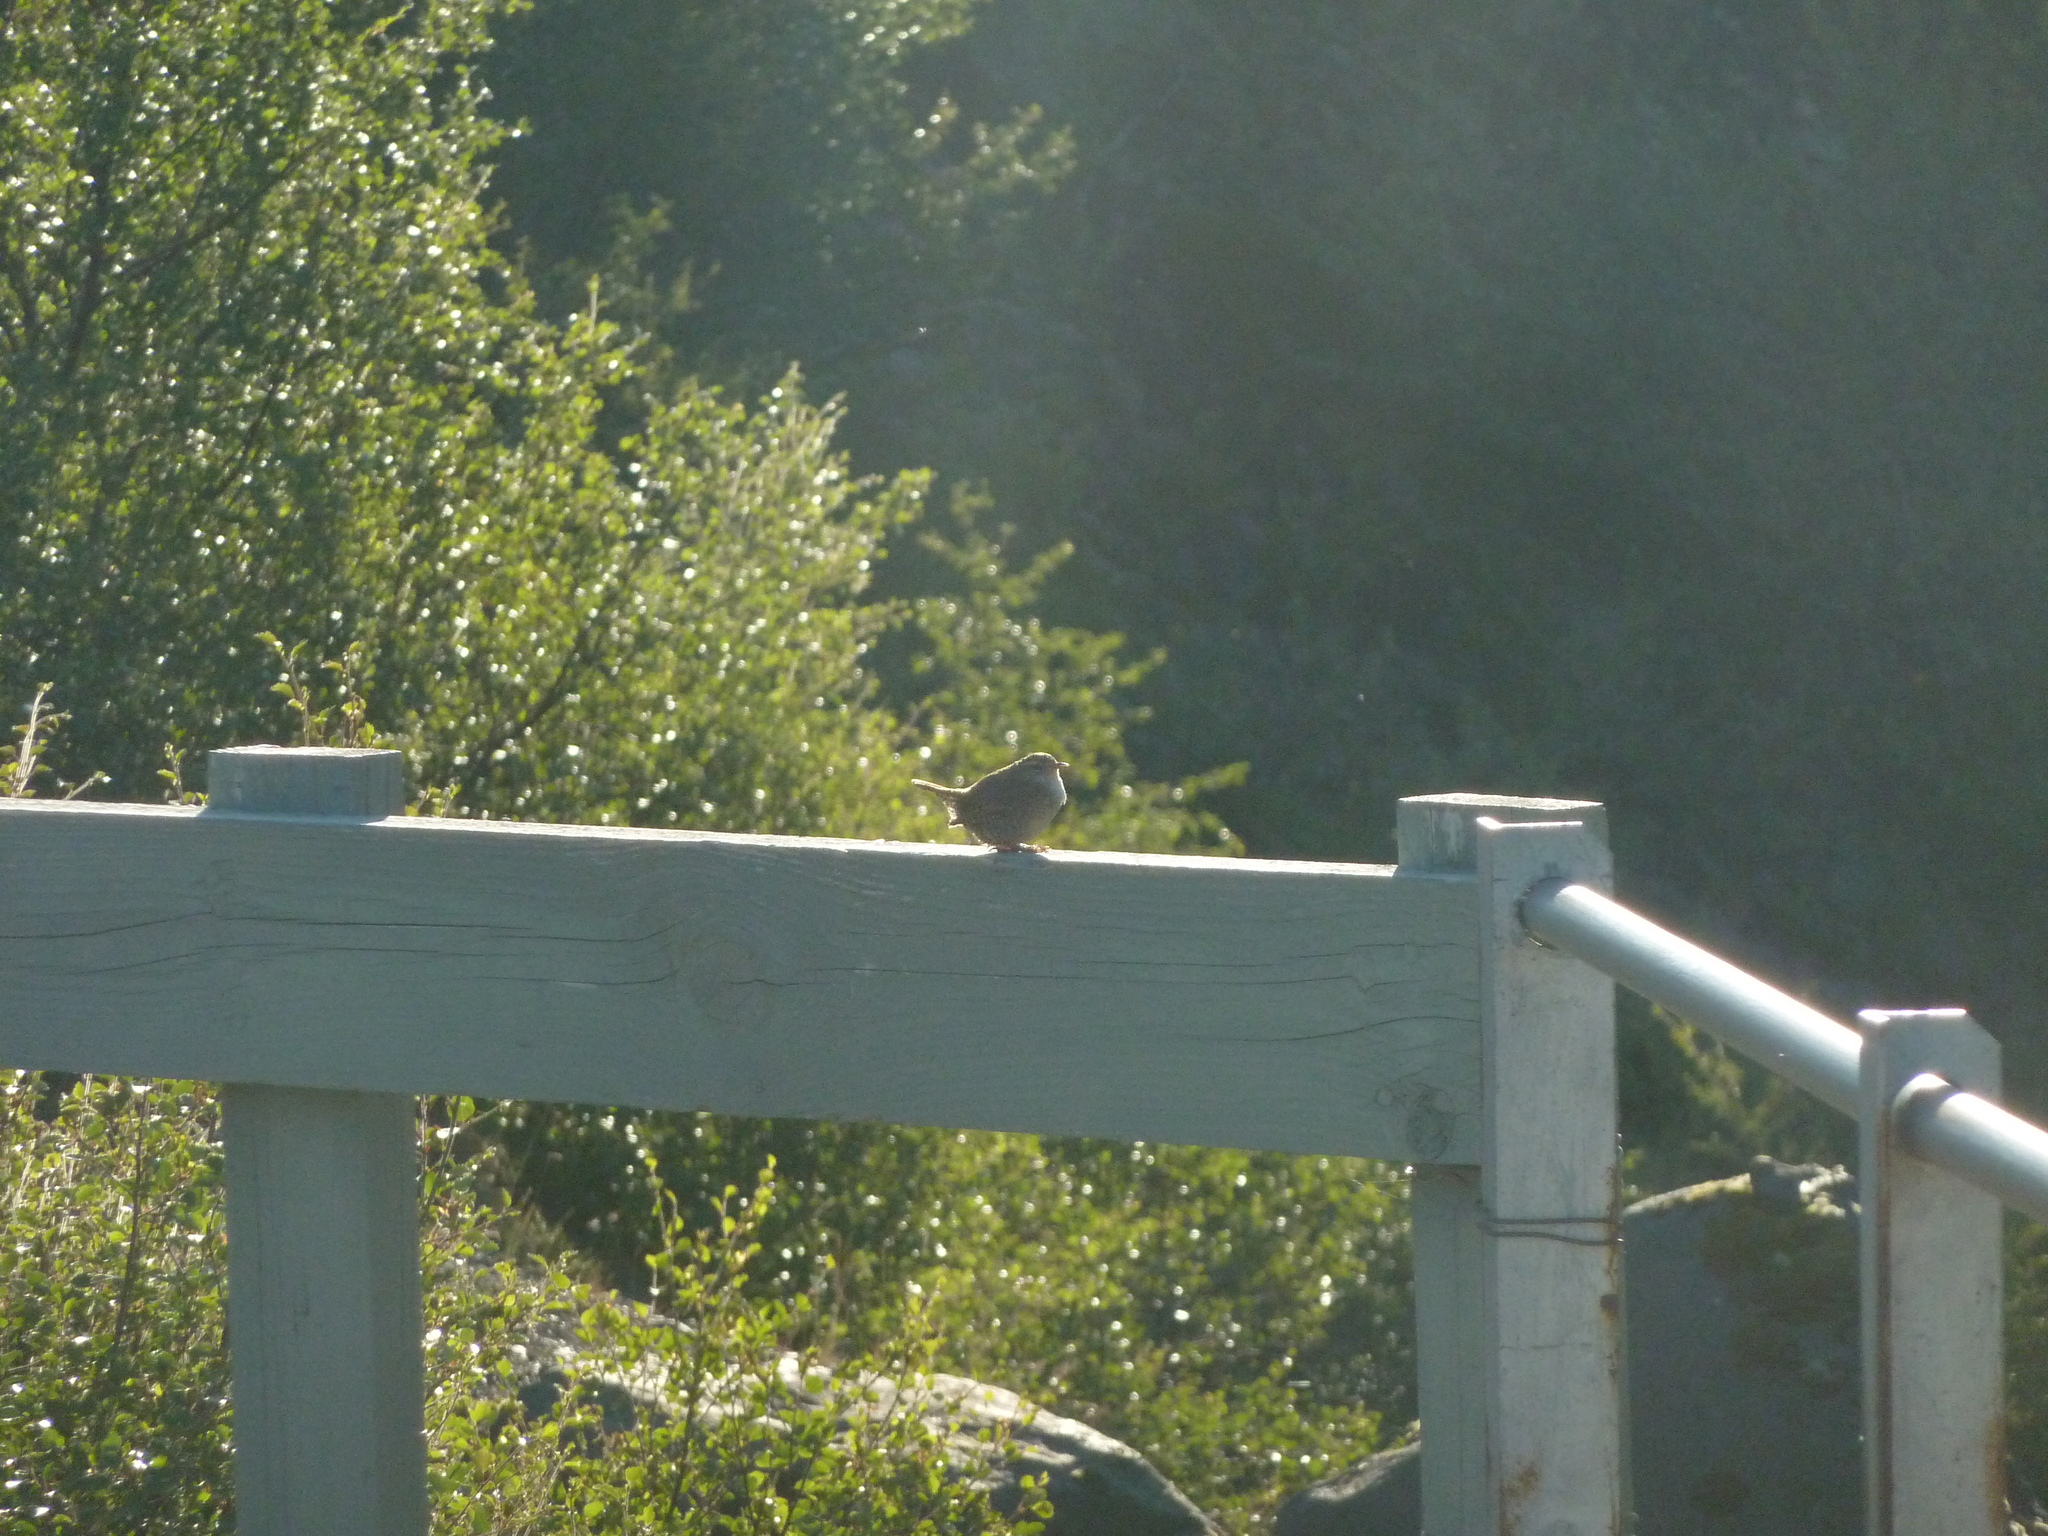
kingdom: Animalia
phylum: Chordata
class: Aves
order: Passeriformes
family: Troglodytidae
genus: Troglodytes
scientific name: Troglodytes troglodytes
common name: Eurasian wren
